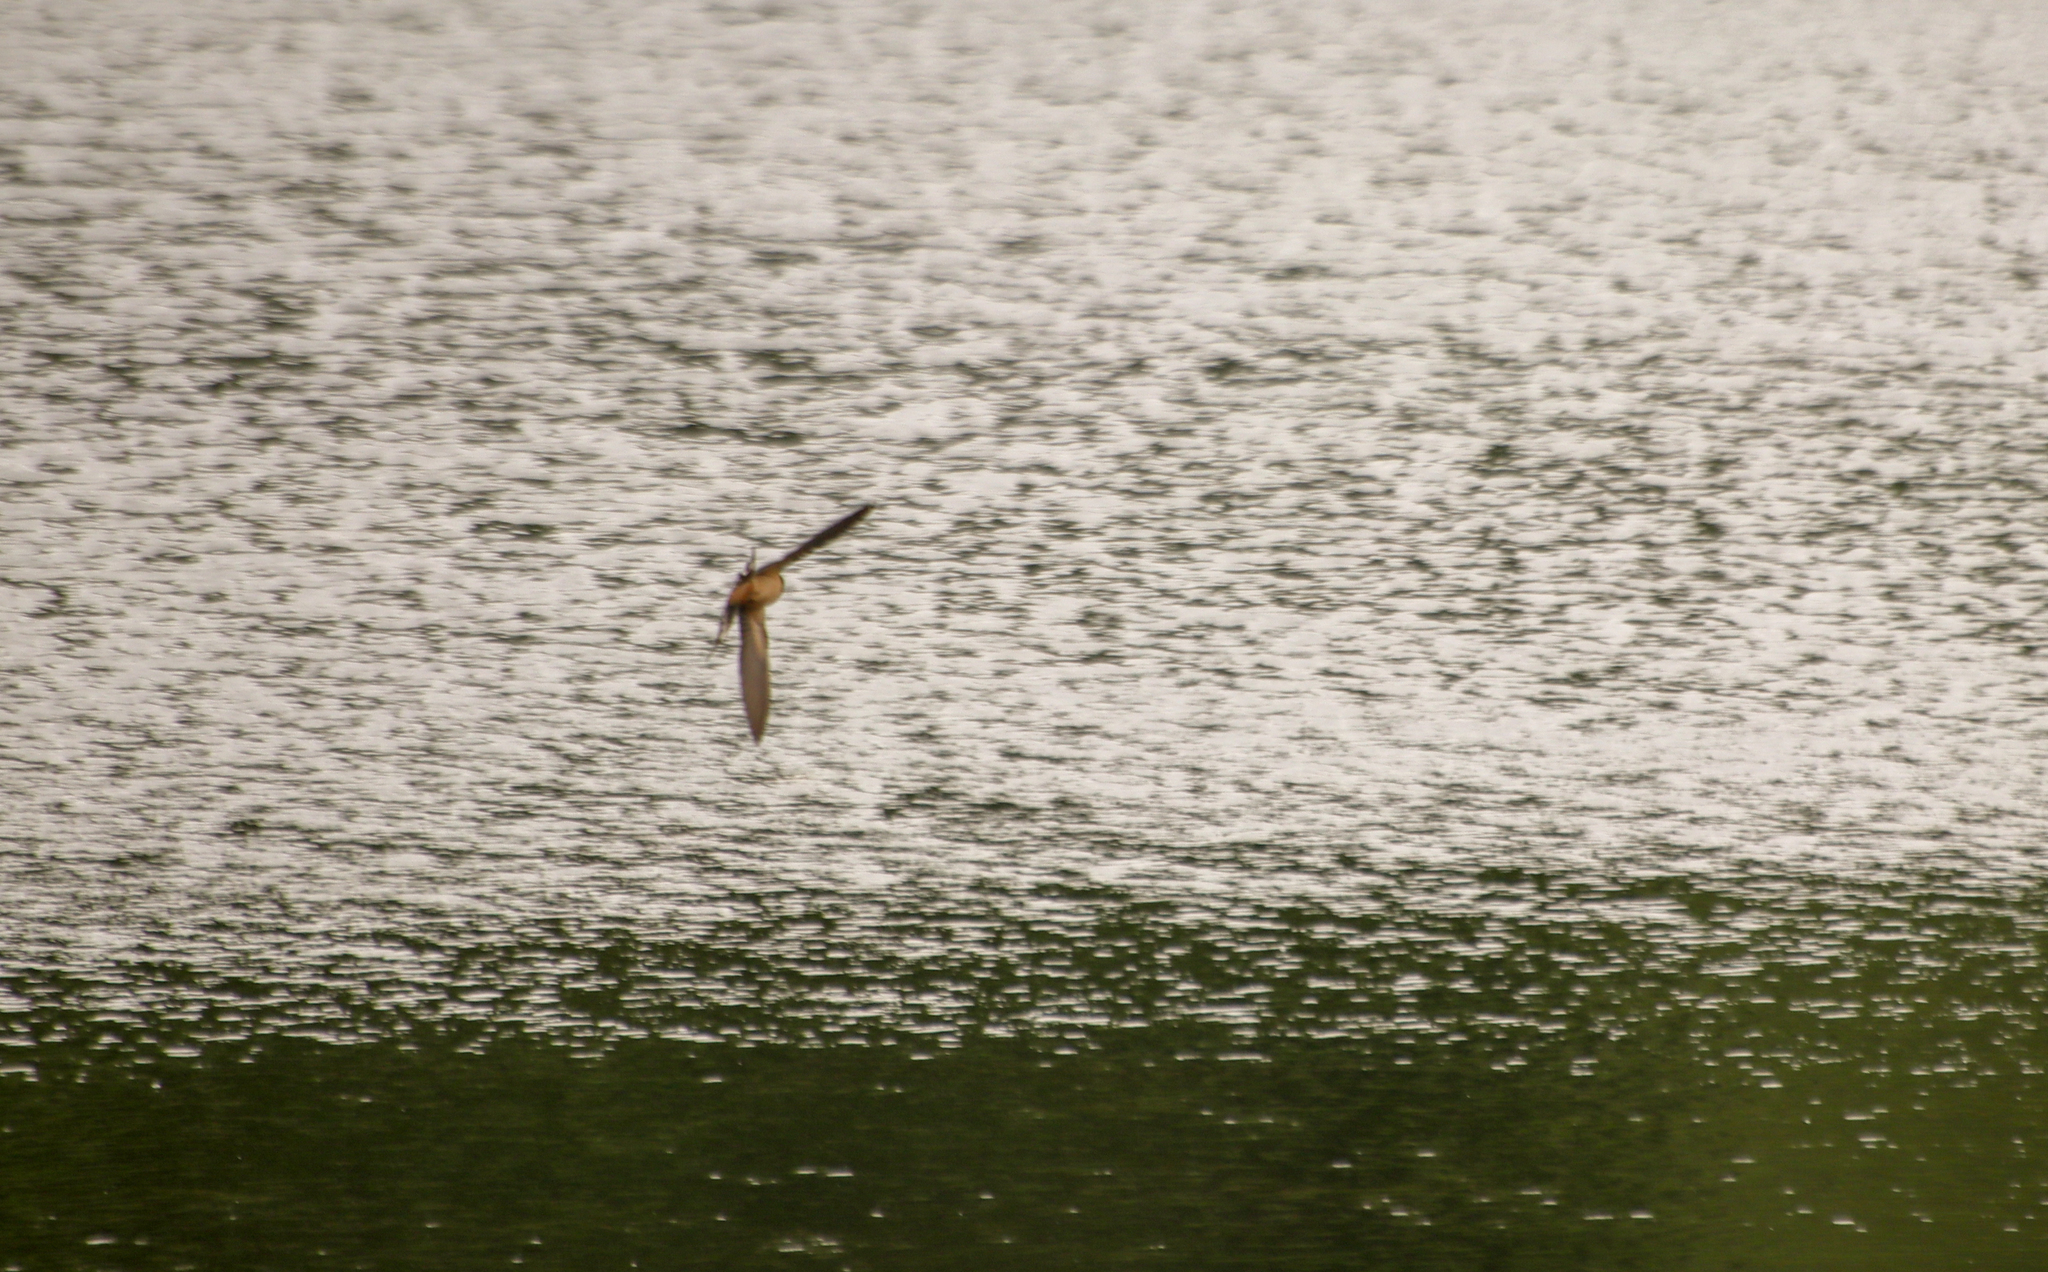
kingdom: Animalia
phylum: Chordata
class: Aves
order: Passeriformes
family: Hirundinidae
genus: Hirundo
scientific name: Hirundo rustica
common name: Barn swallow
